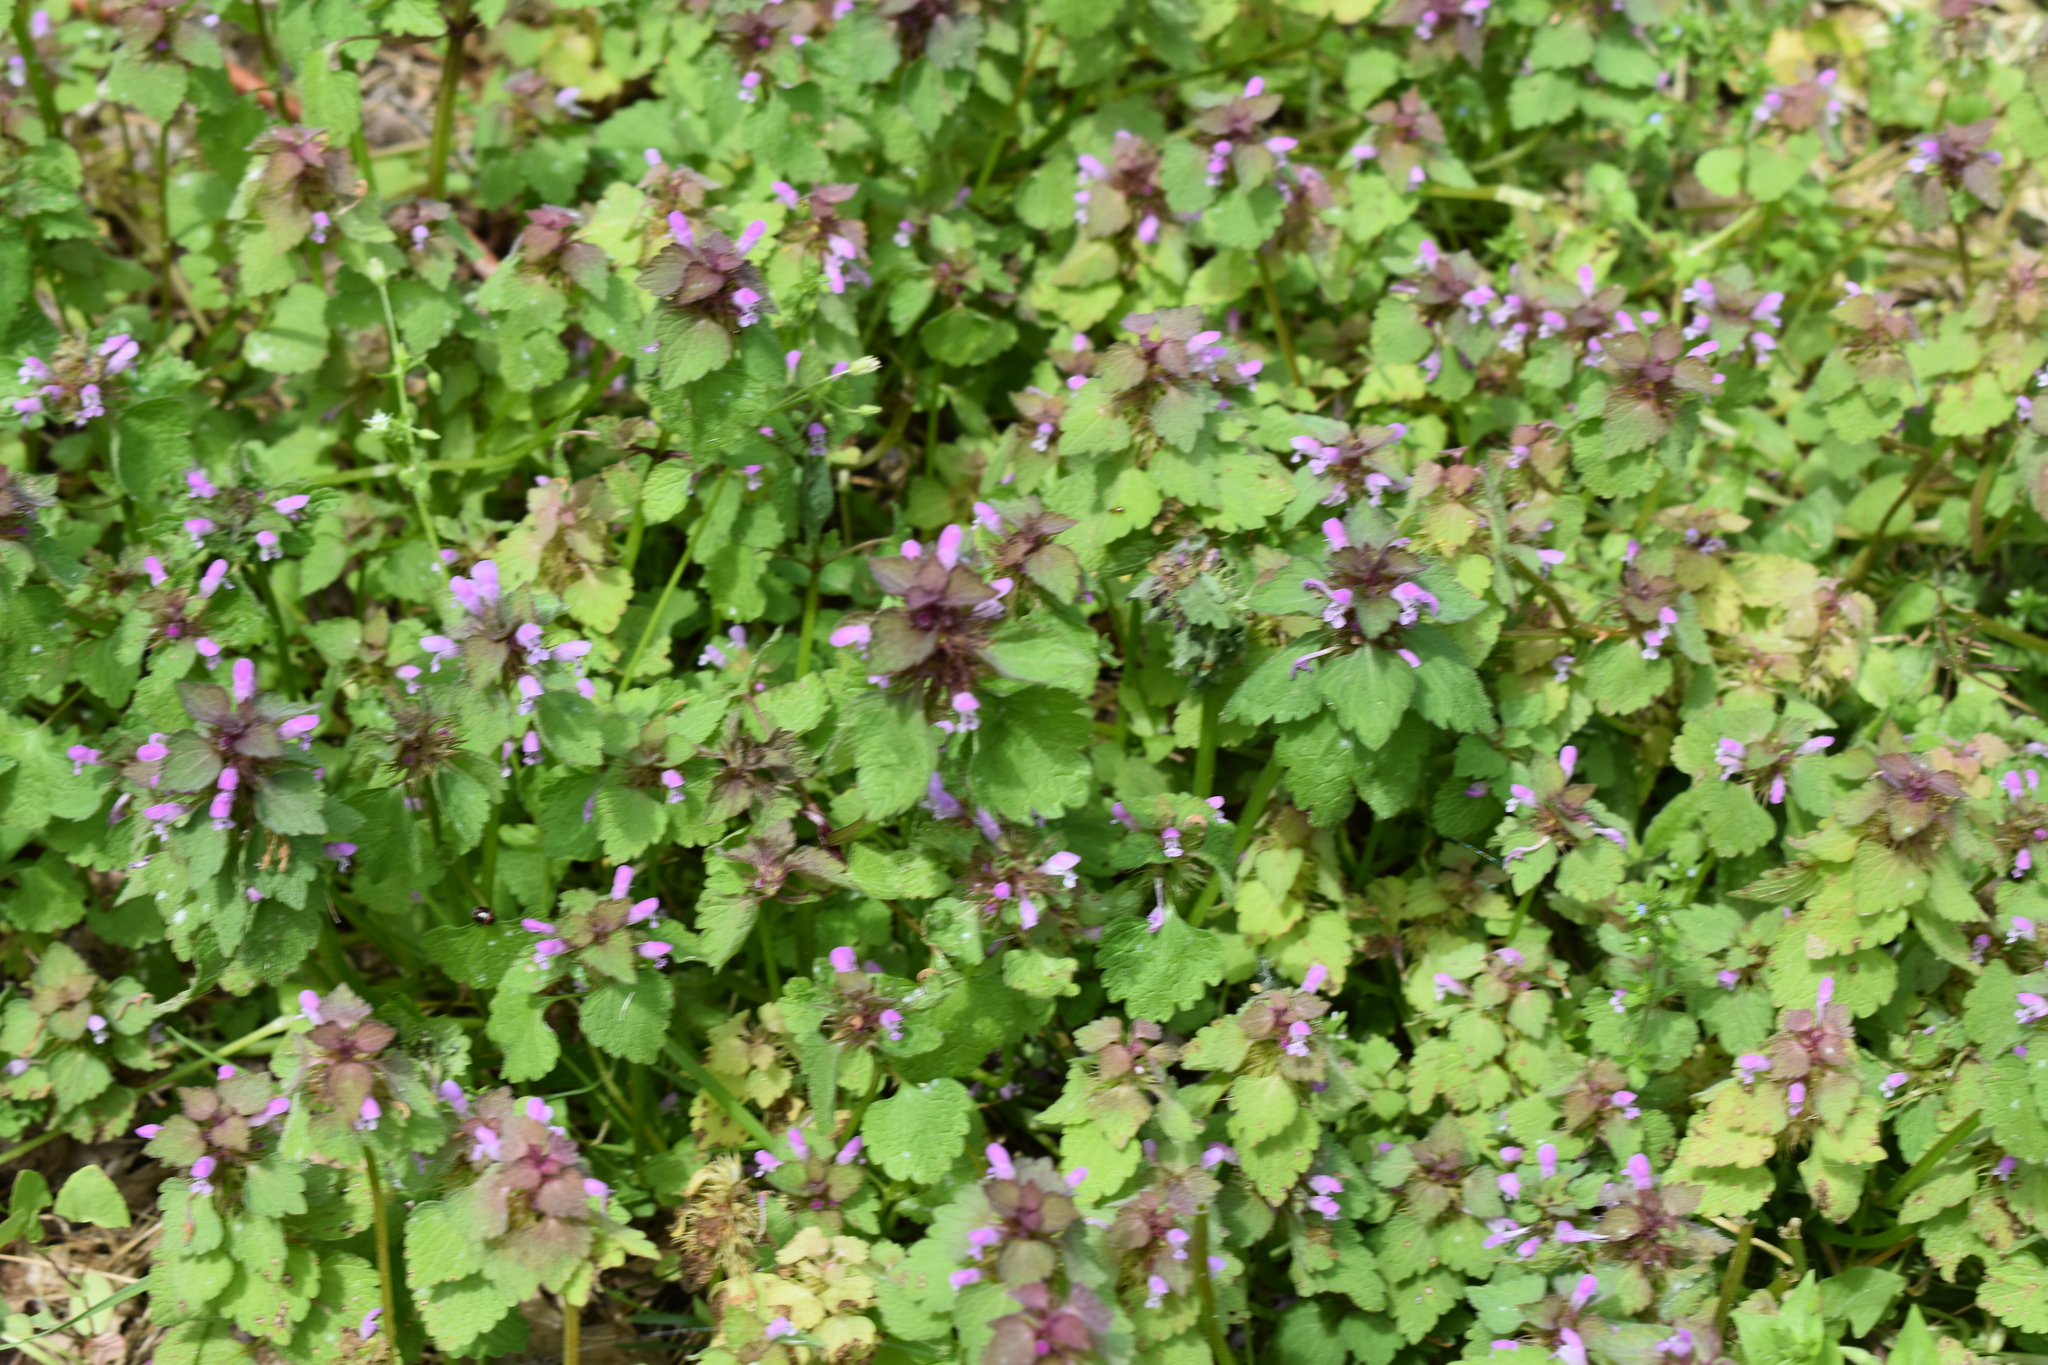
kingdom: Plantae
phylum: Tracheophyta
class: Magnoliopsida
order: Lamiales
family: Lamiaceae
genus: Lamium
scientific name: Lamium purpureum
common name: Red dead-nettle
